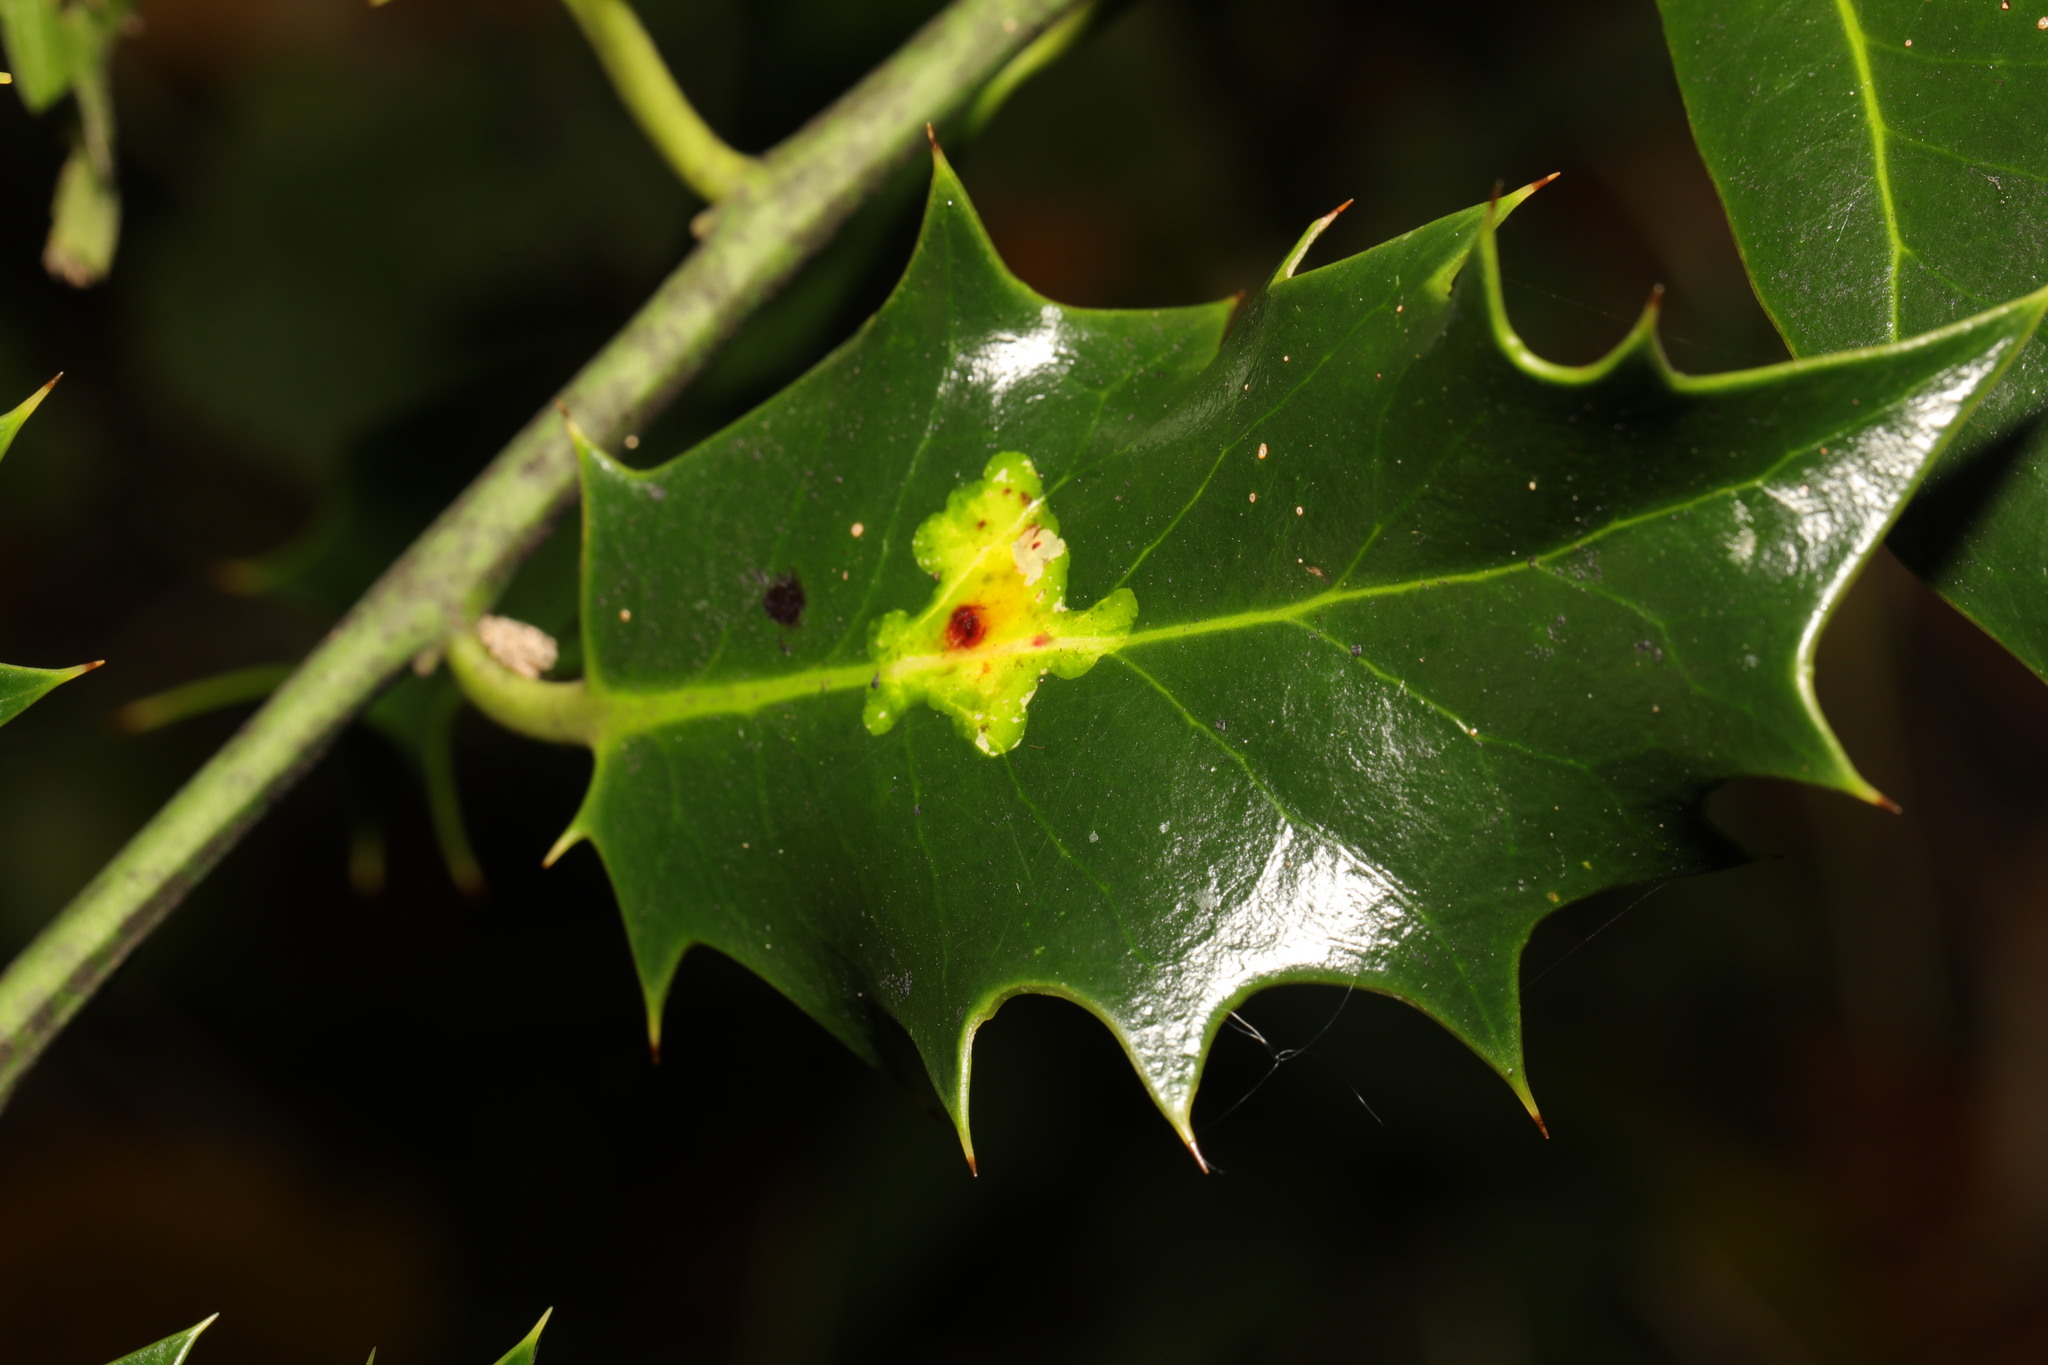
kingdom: Animalia
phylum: Arthropoda
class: Insecta
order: Diptera
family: Agromyzidae
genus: Phytomyza
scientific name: Phytomyza ilicis
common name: Holly leafminer
